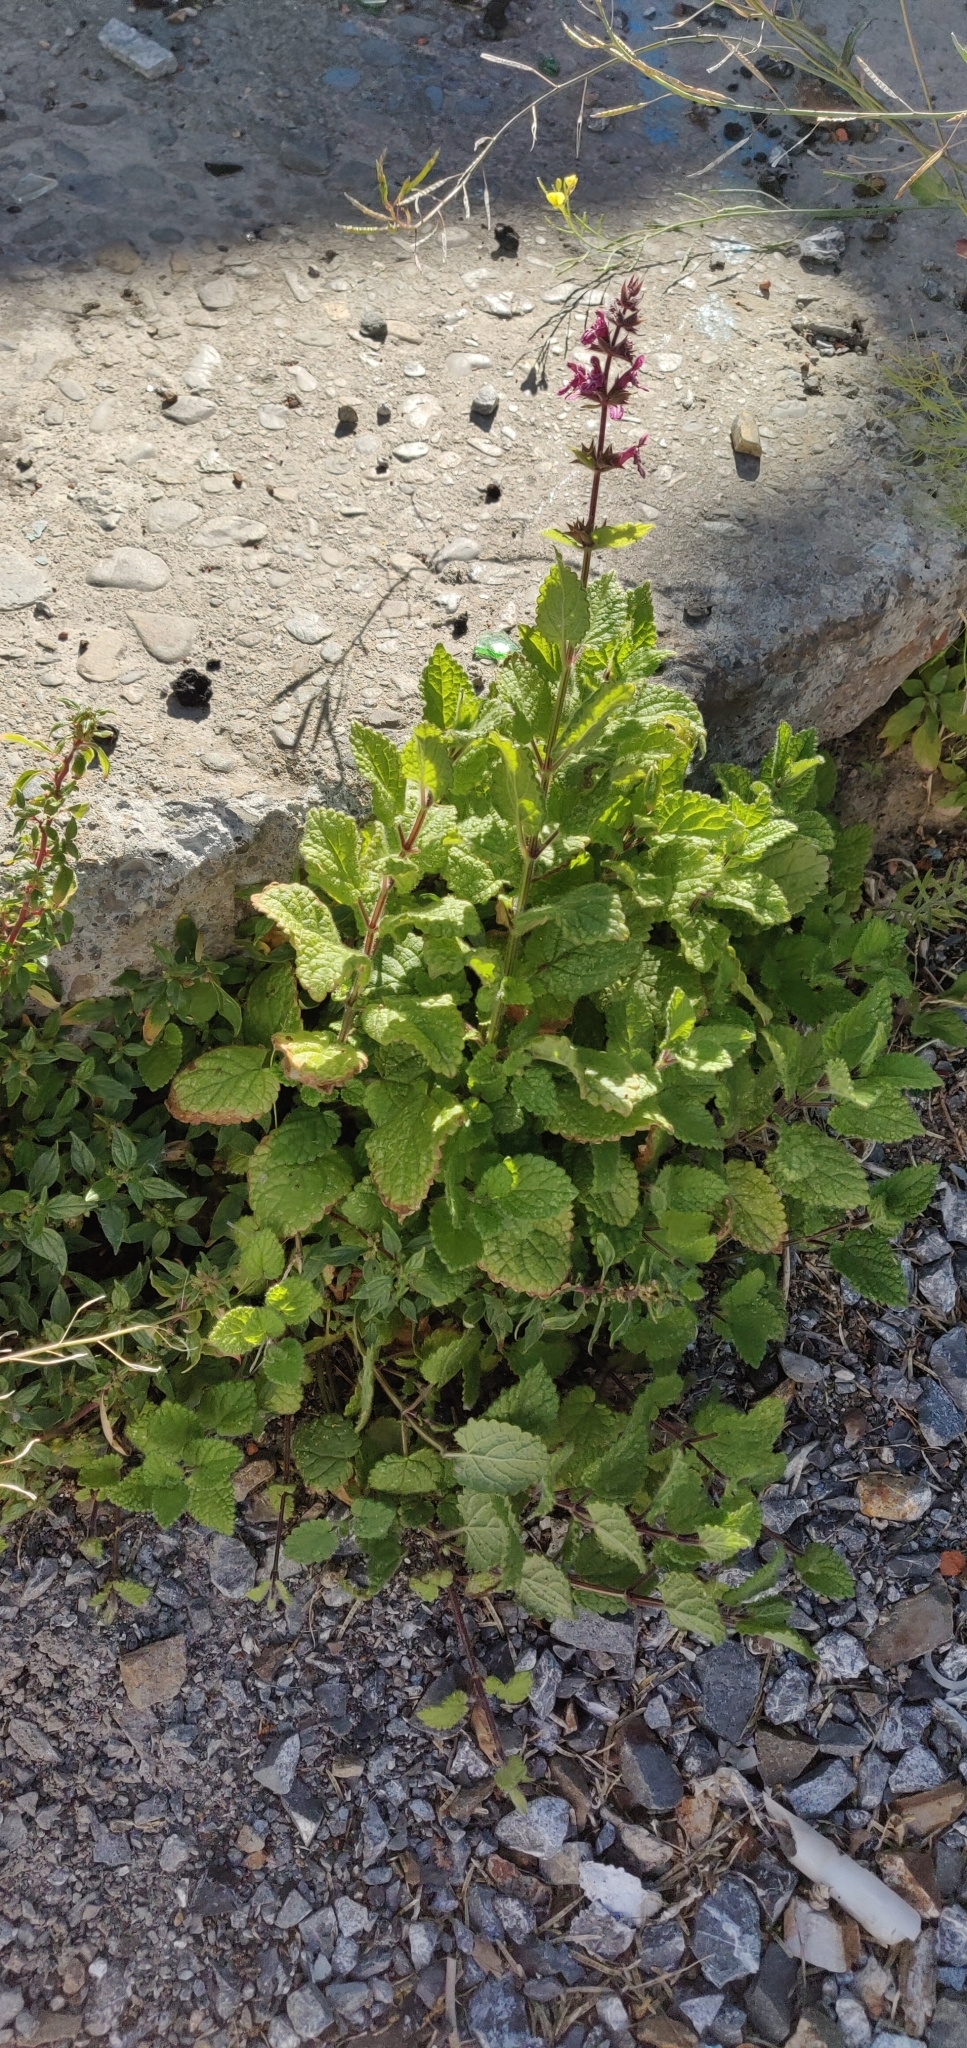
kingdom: Plantae
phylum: Tracheophyta
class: Magnoliopsida
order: Lamiales
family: Lamiaceae
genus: Stachys
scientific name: Stachys sylvatica
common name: Hedge woundwort
